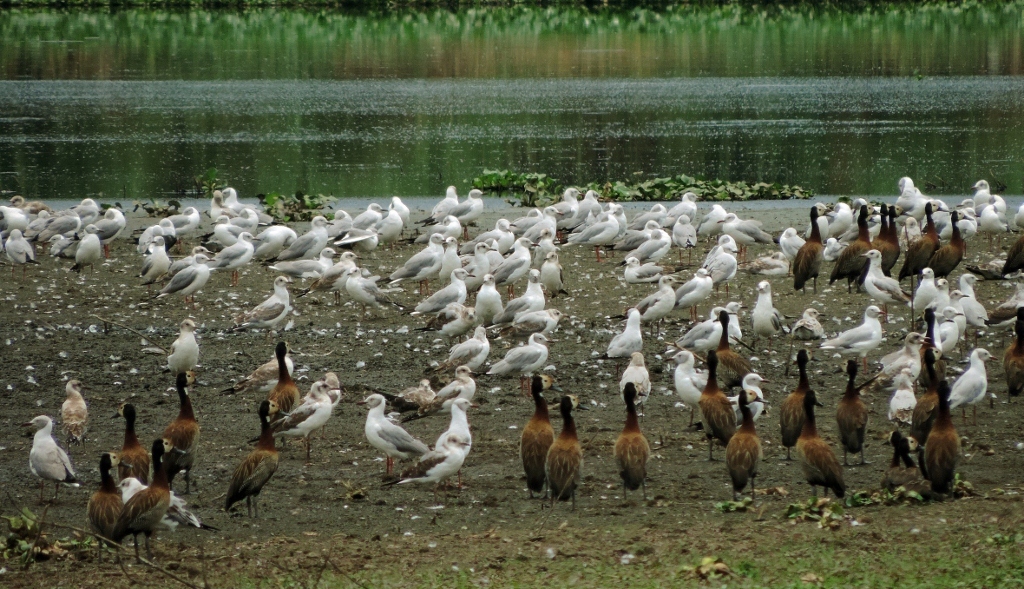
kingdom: Animalia
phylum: Chordata
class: Aves
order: Charadriiformes
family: Laridae
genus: Chroicocephalus
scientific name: Chroicocephalus cirrocephalus
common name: Grey-headed gull
